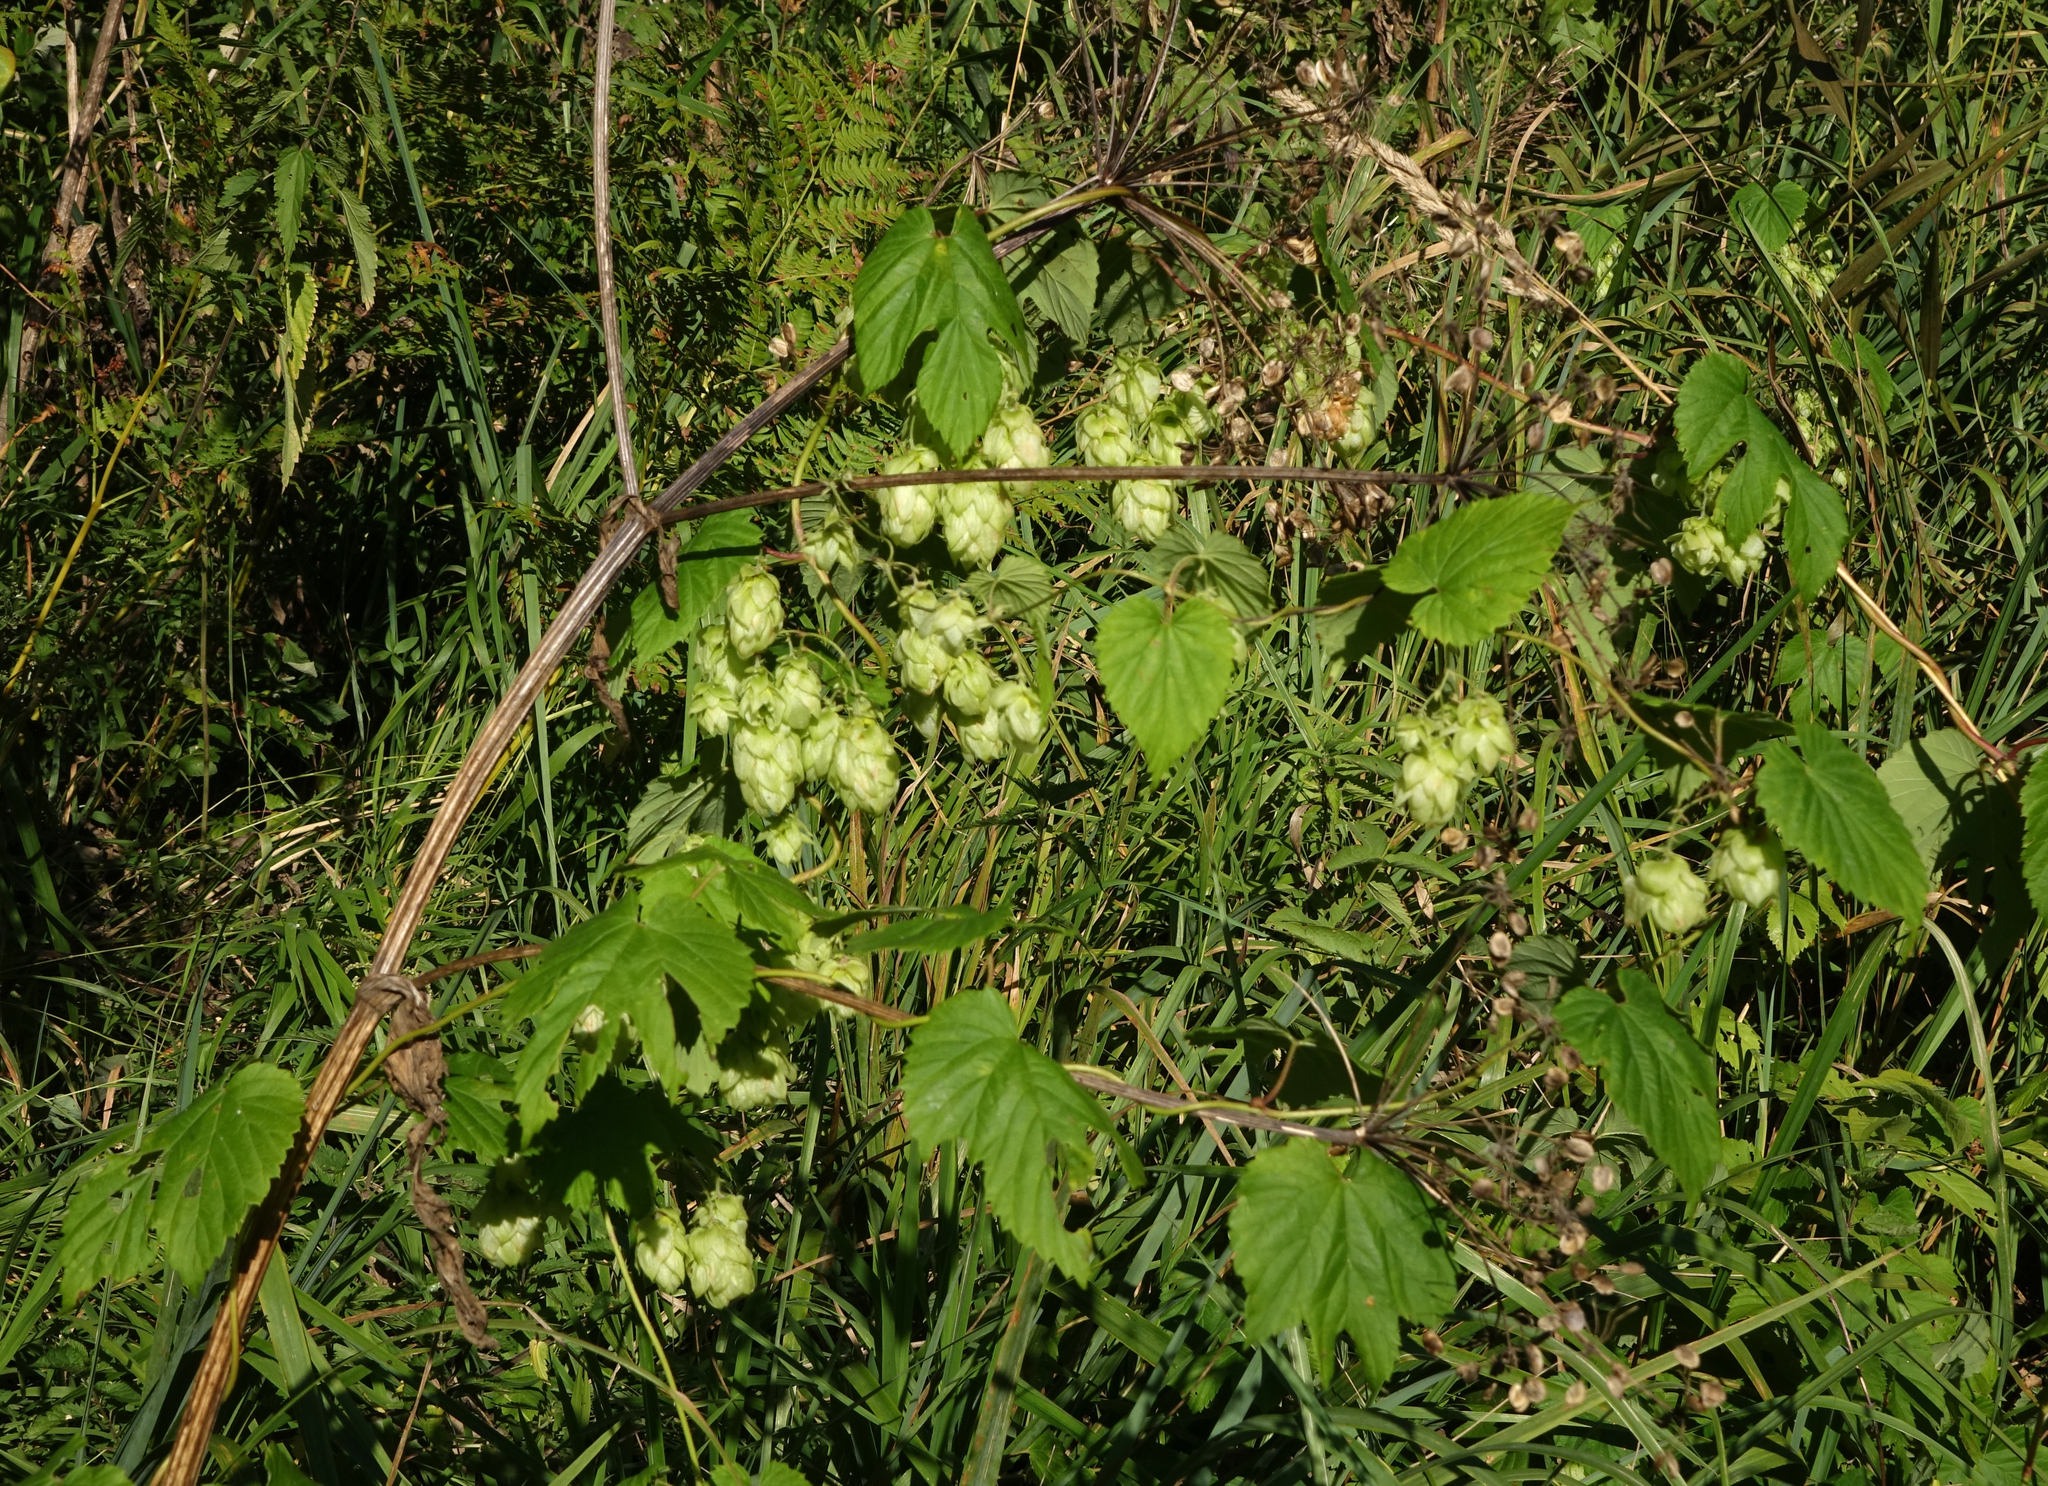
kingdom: Plantae
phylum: Tracheophyta
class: Magnoliopsida
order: Rosales
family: Cannabaceae
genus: Humulus
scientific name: Humulus lupulus
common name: Hop
